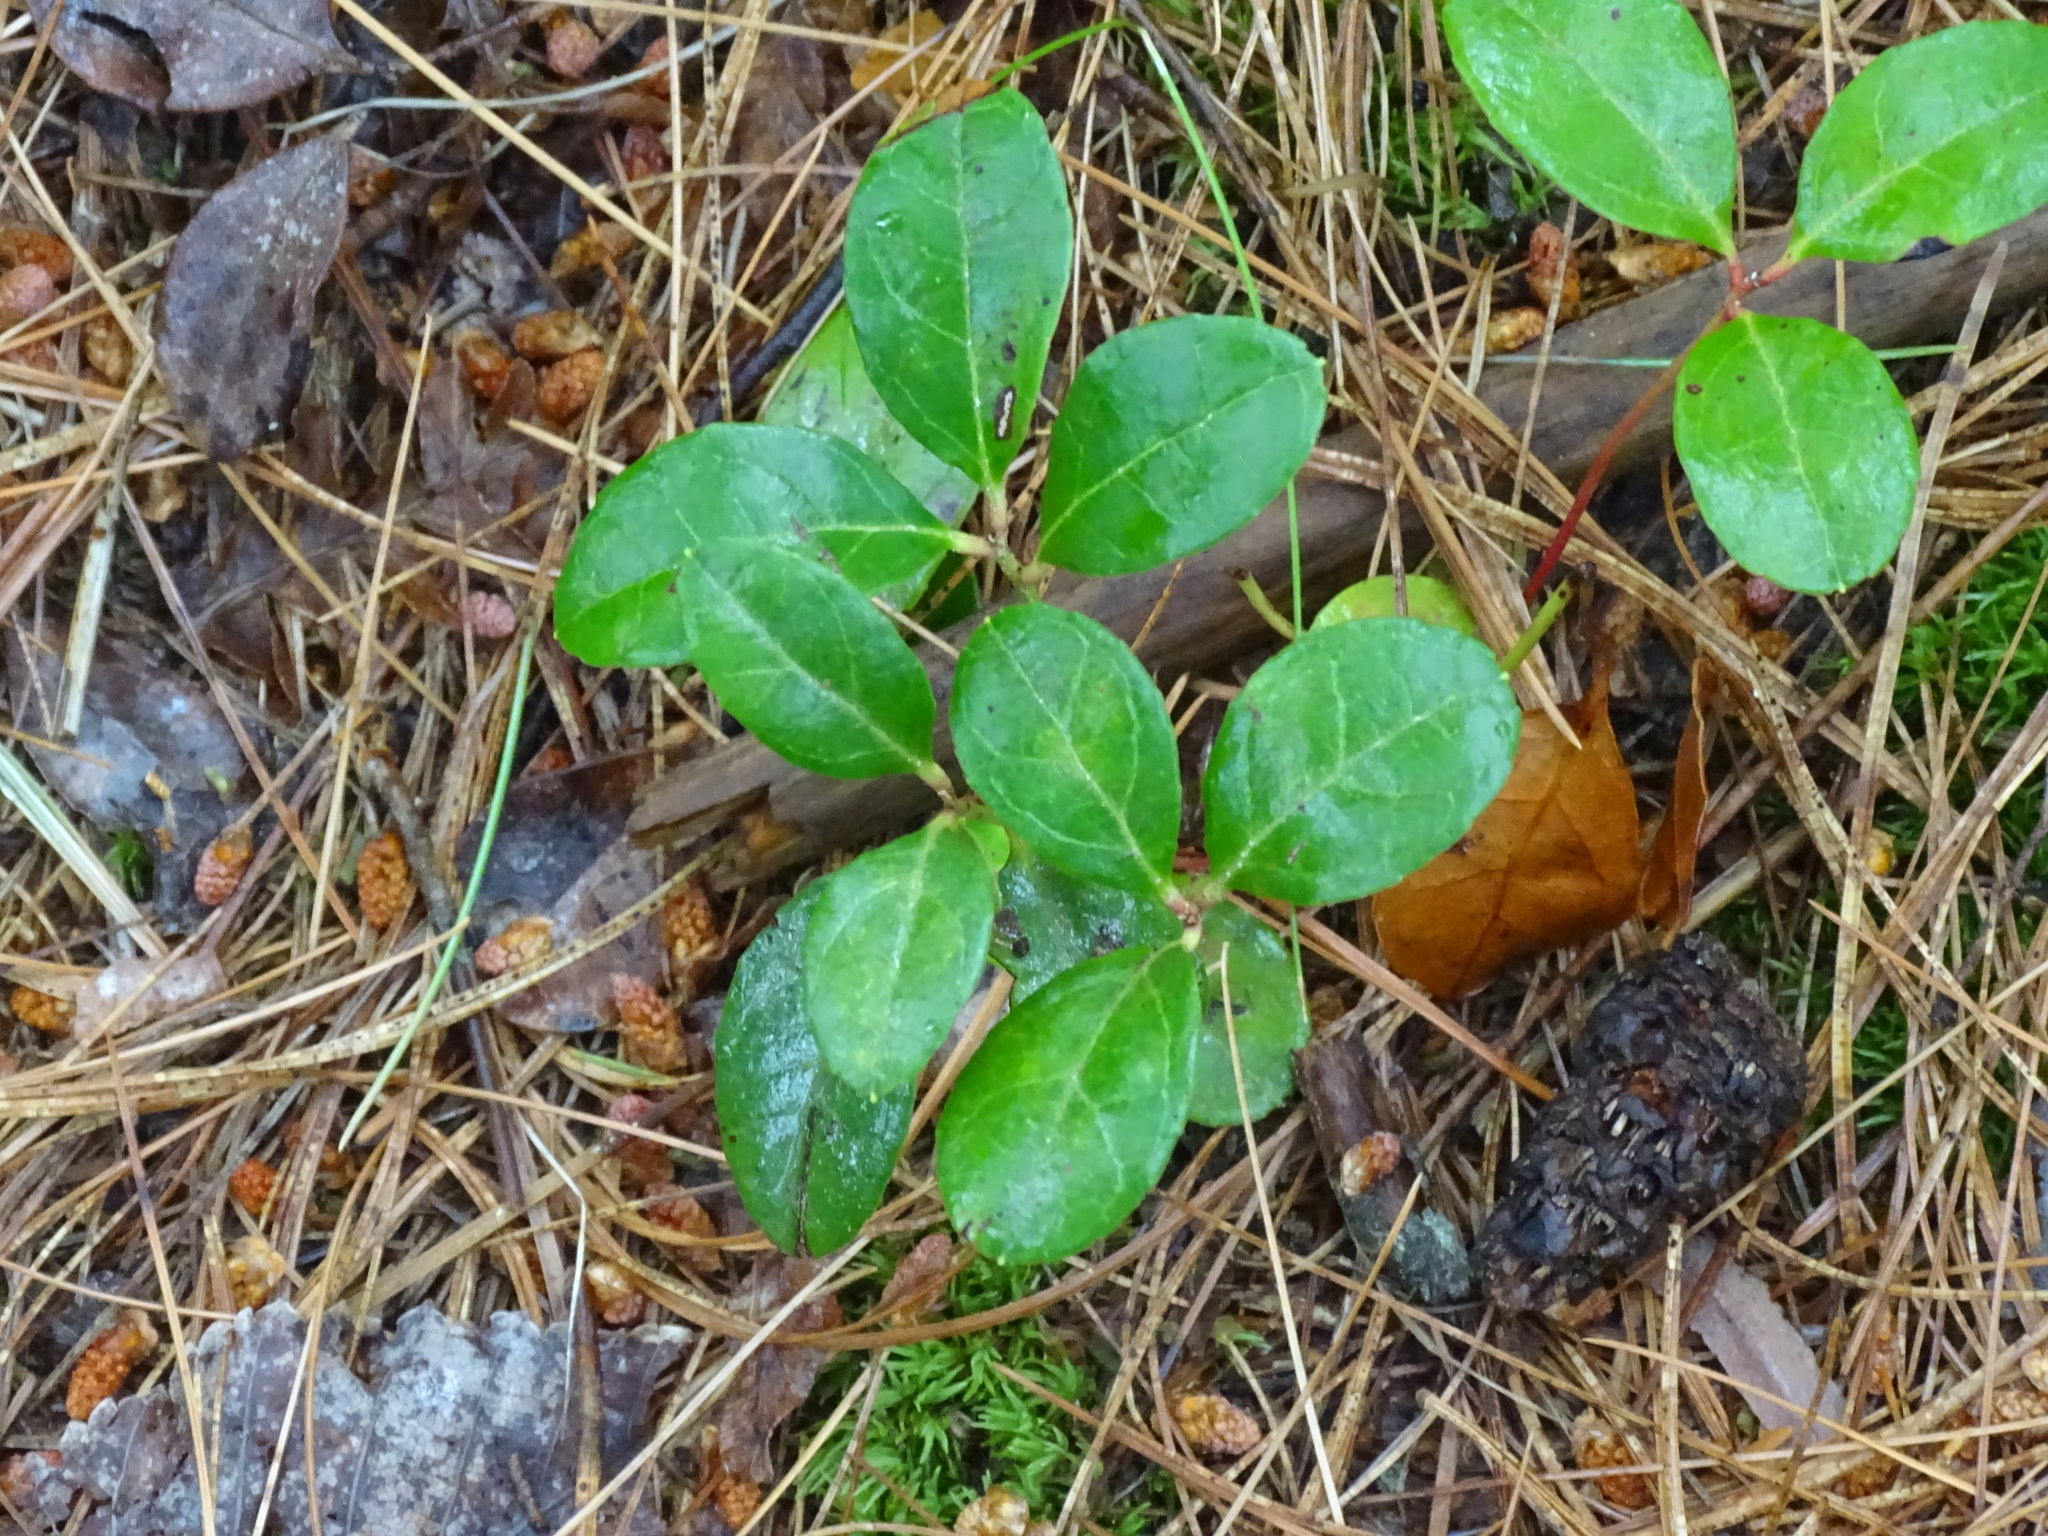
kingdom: Plantae
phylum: Tracheophyta
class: Magnoliopsida
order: Ericales
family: Ericaceae
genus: Gaultheria
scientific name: Gaultheria procumbens
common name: Checkerberry
